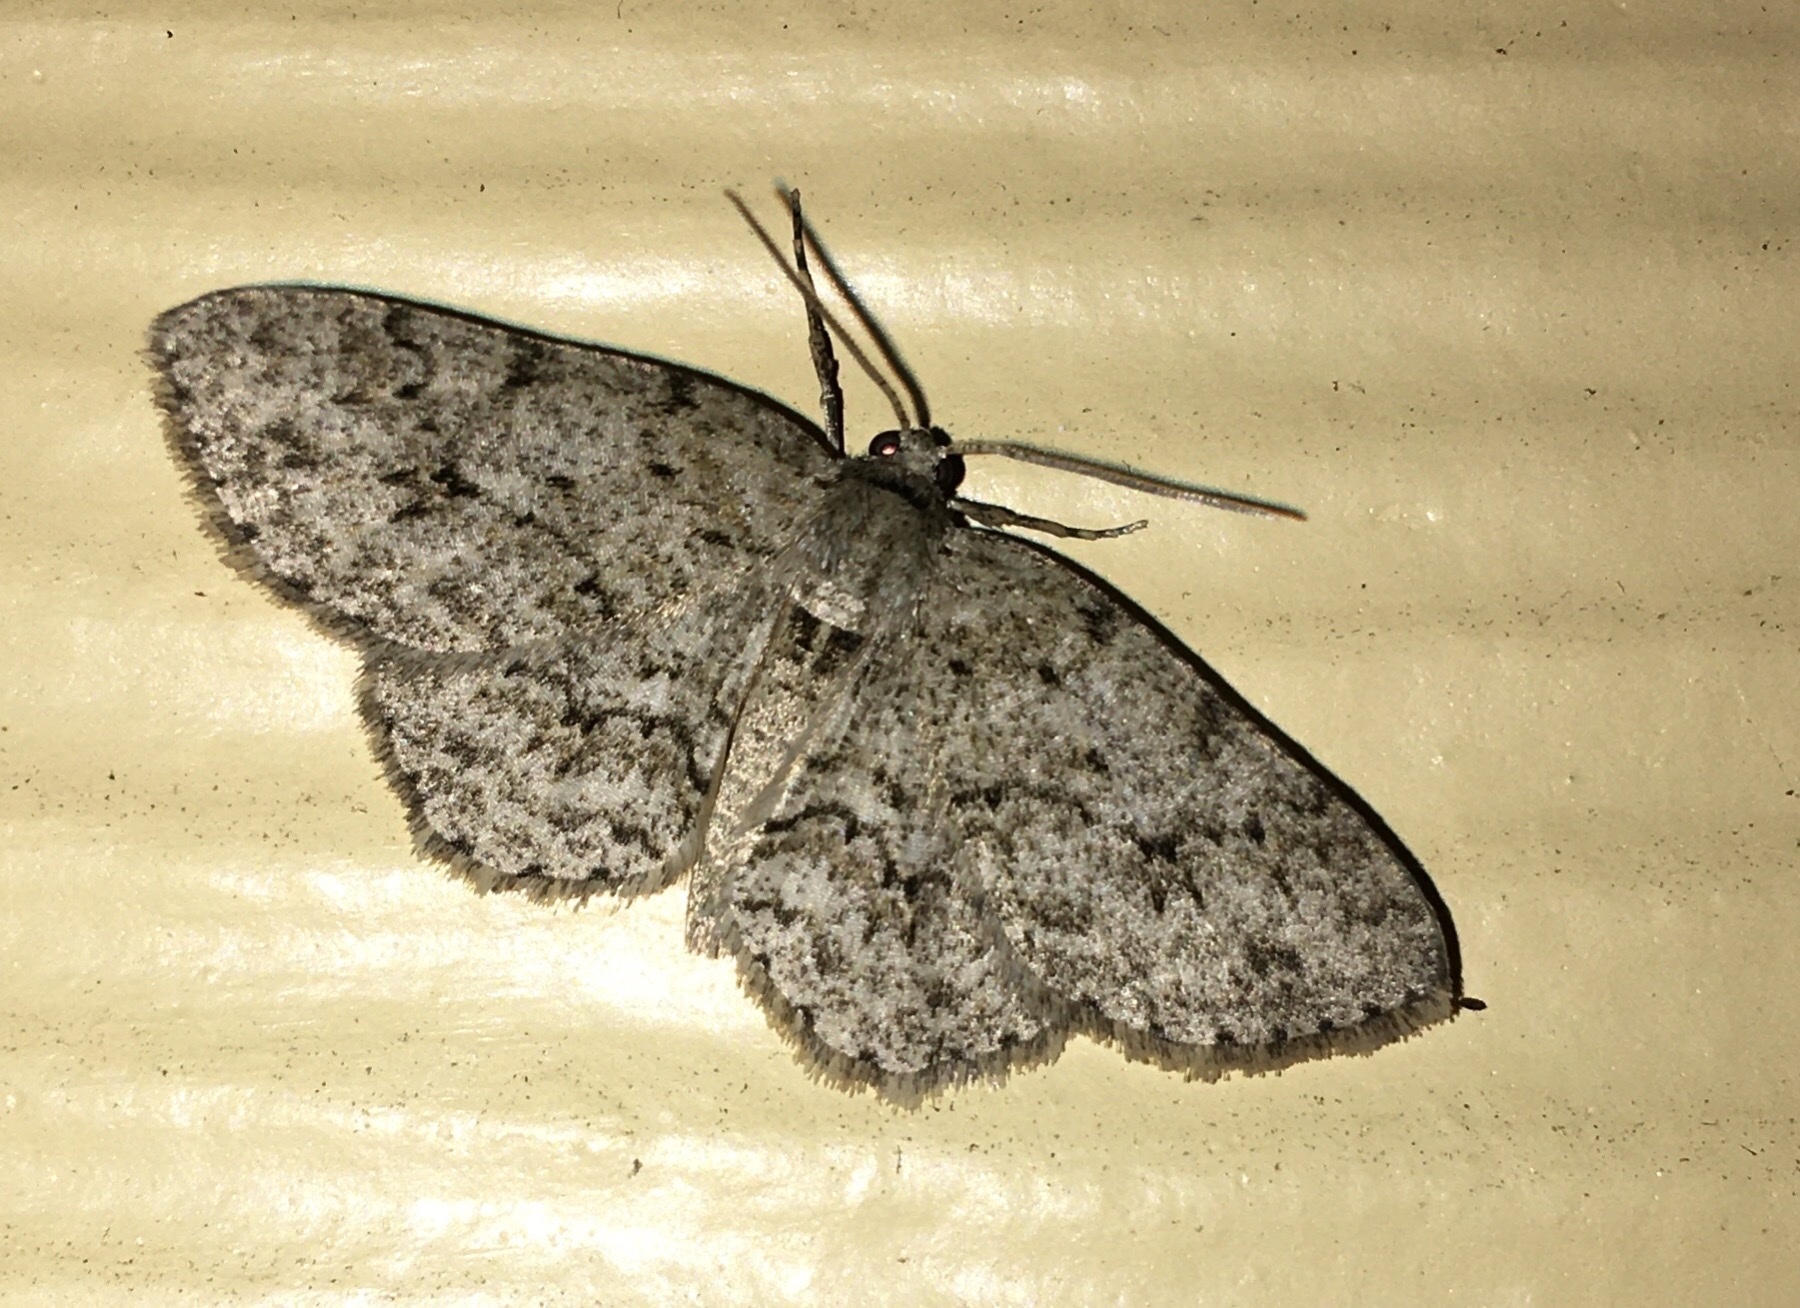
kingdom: Animalia
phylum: Arthropoda
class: Insecta
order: Lepidoptera
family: Geometridae
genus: Ectropis
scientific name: Ectropis crepuscularia
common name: Engrailed
